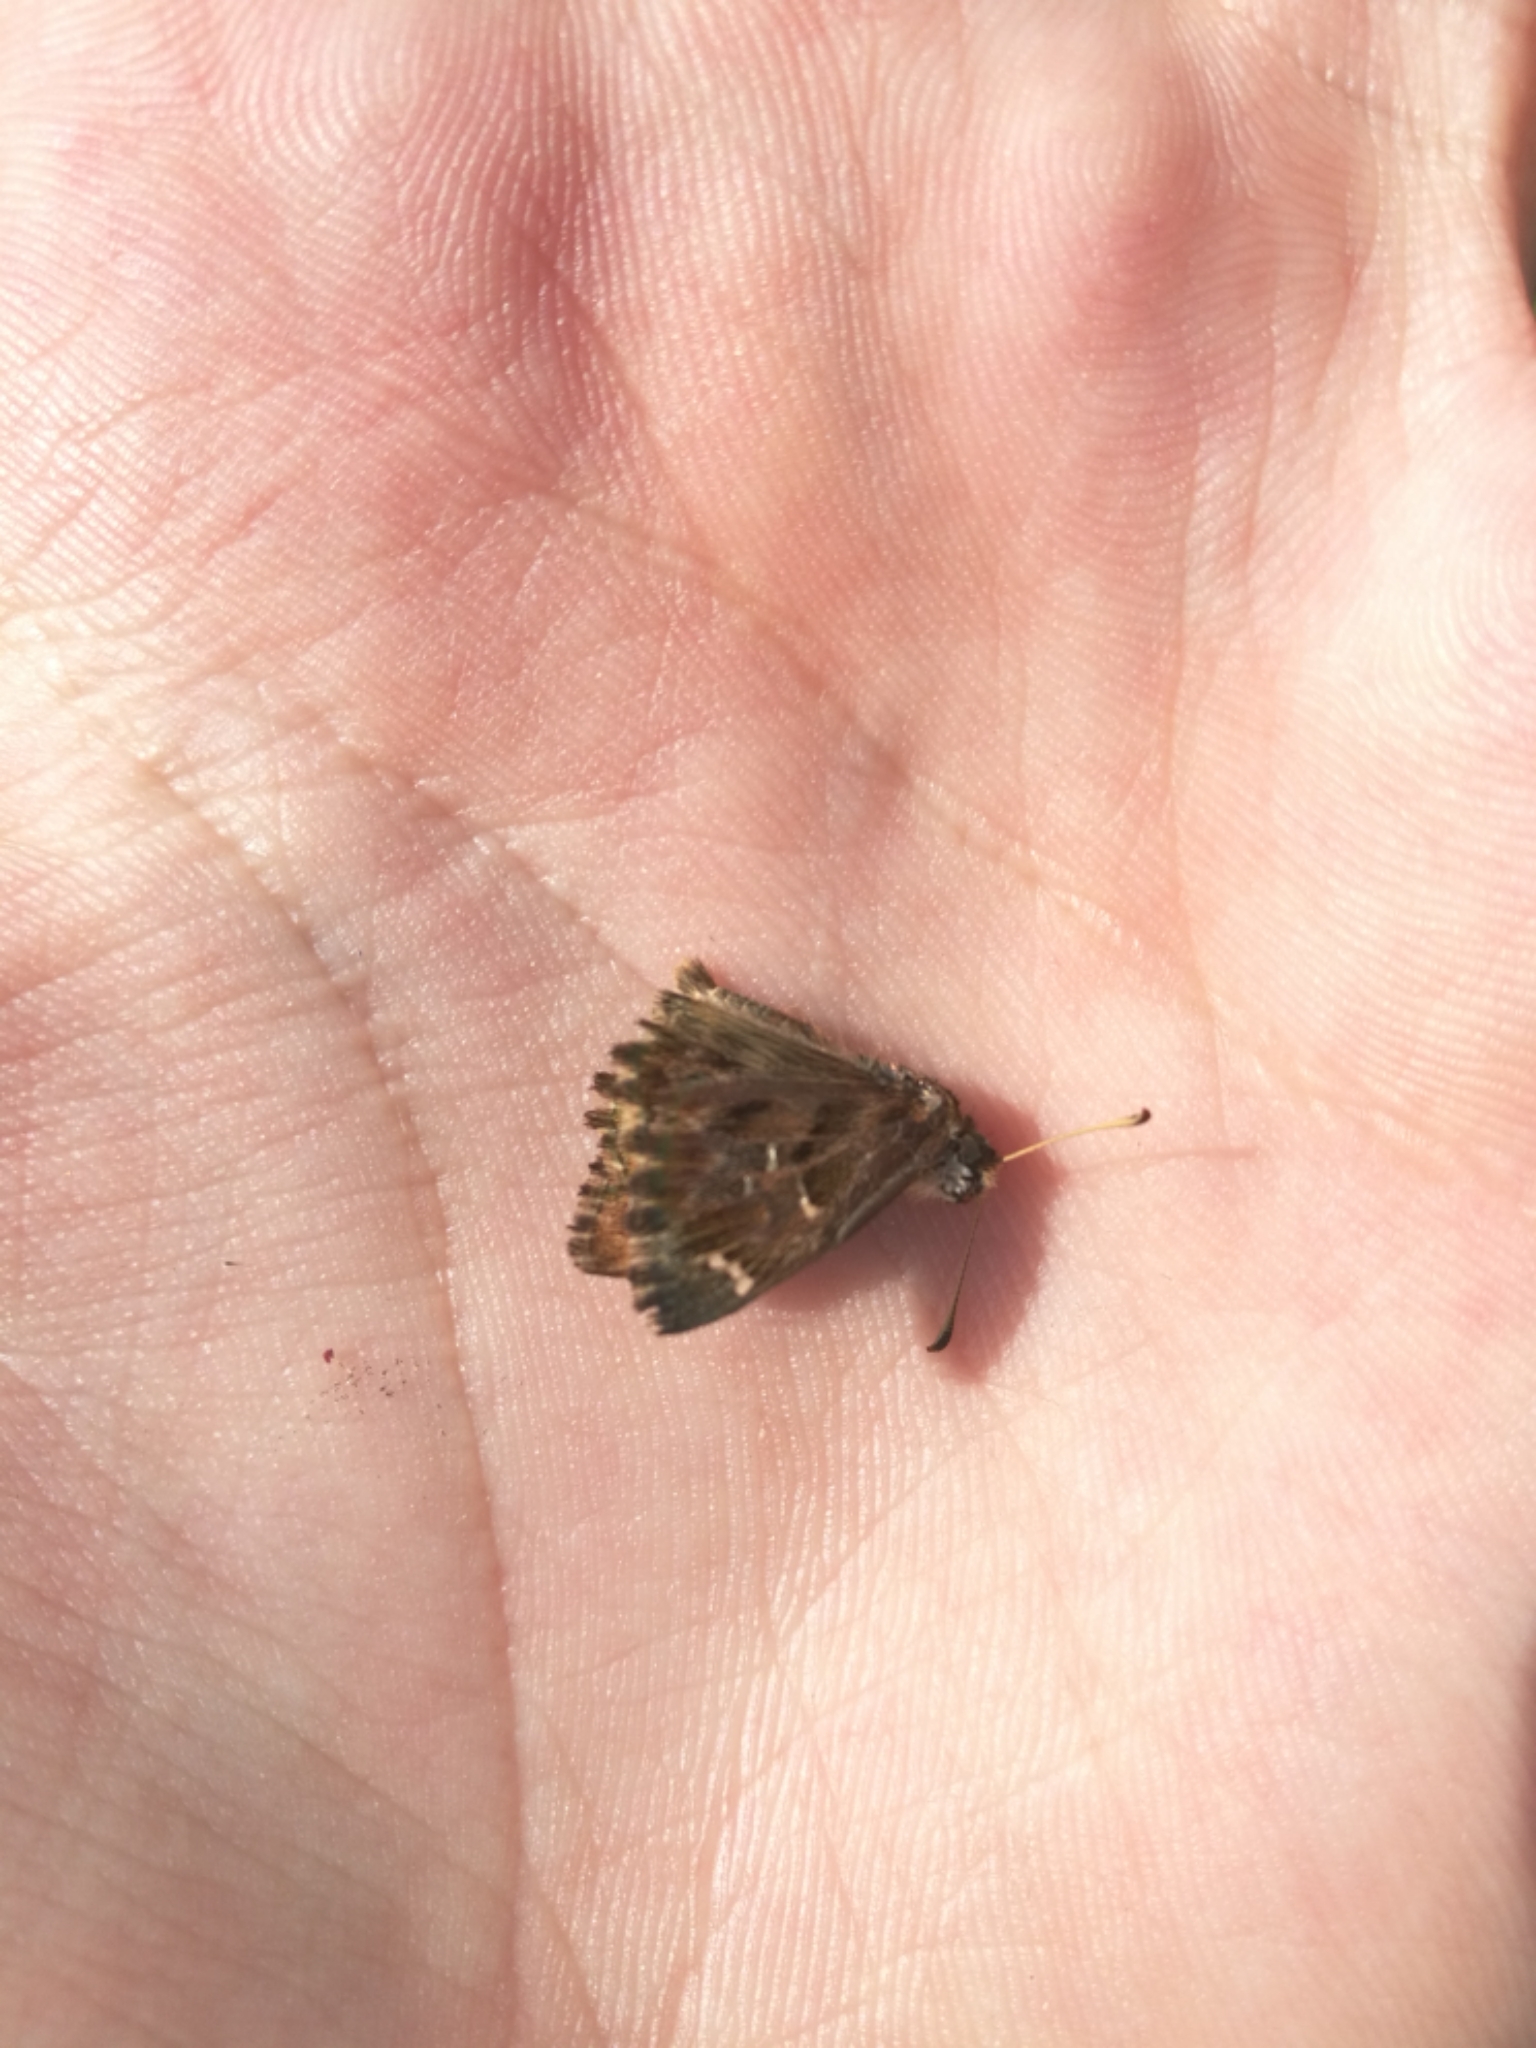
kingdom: Animalia
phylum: Arthropoda
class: Insecta
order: Lepidoptera
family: Hesperiidae
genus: Carcharodus
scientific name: Carcharodus alceae
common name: Mallow skipper
